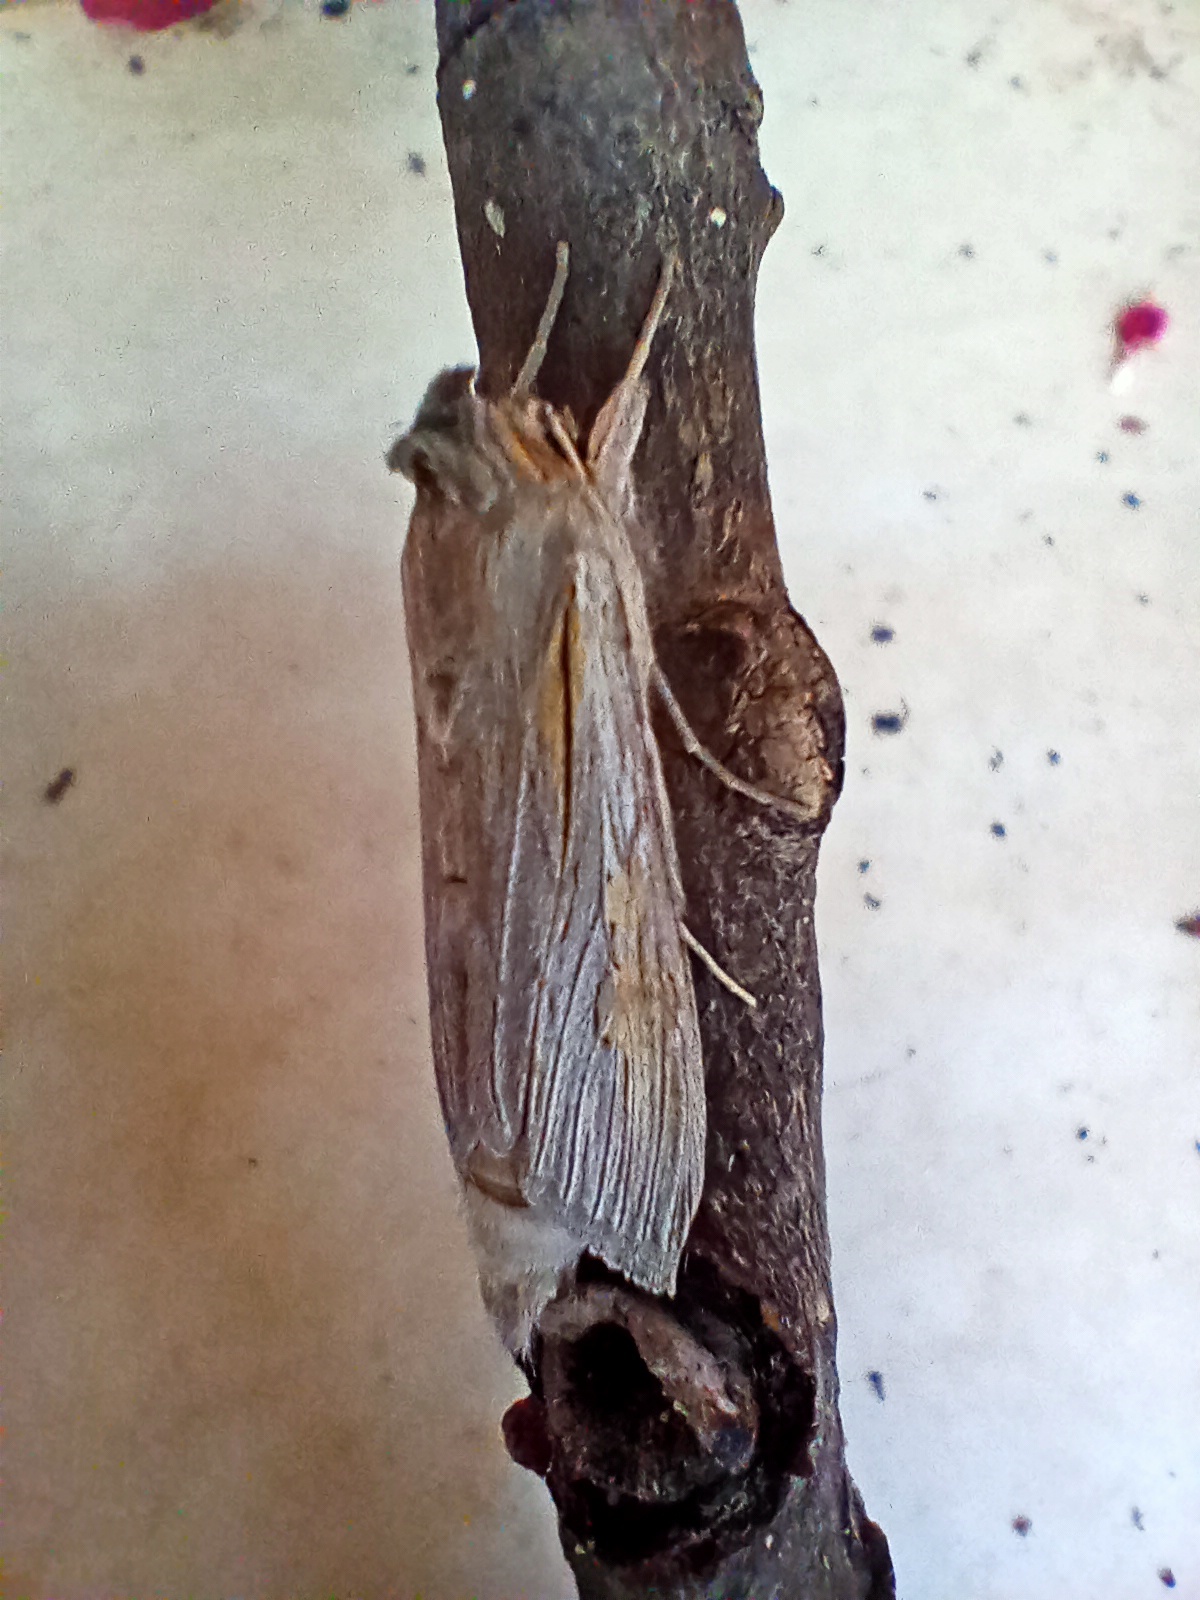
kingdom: Animalia
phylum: Arthropoda
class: Insecta
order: Lepidoptera
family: Noctuidae
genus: Cucullia
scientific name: Cucullia balsamitae
